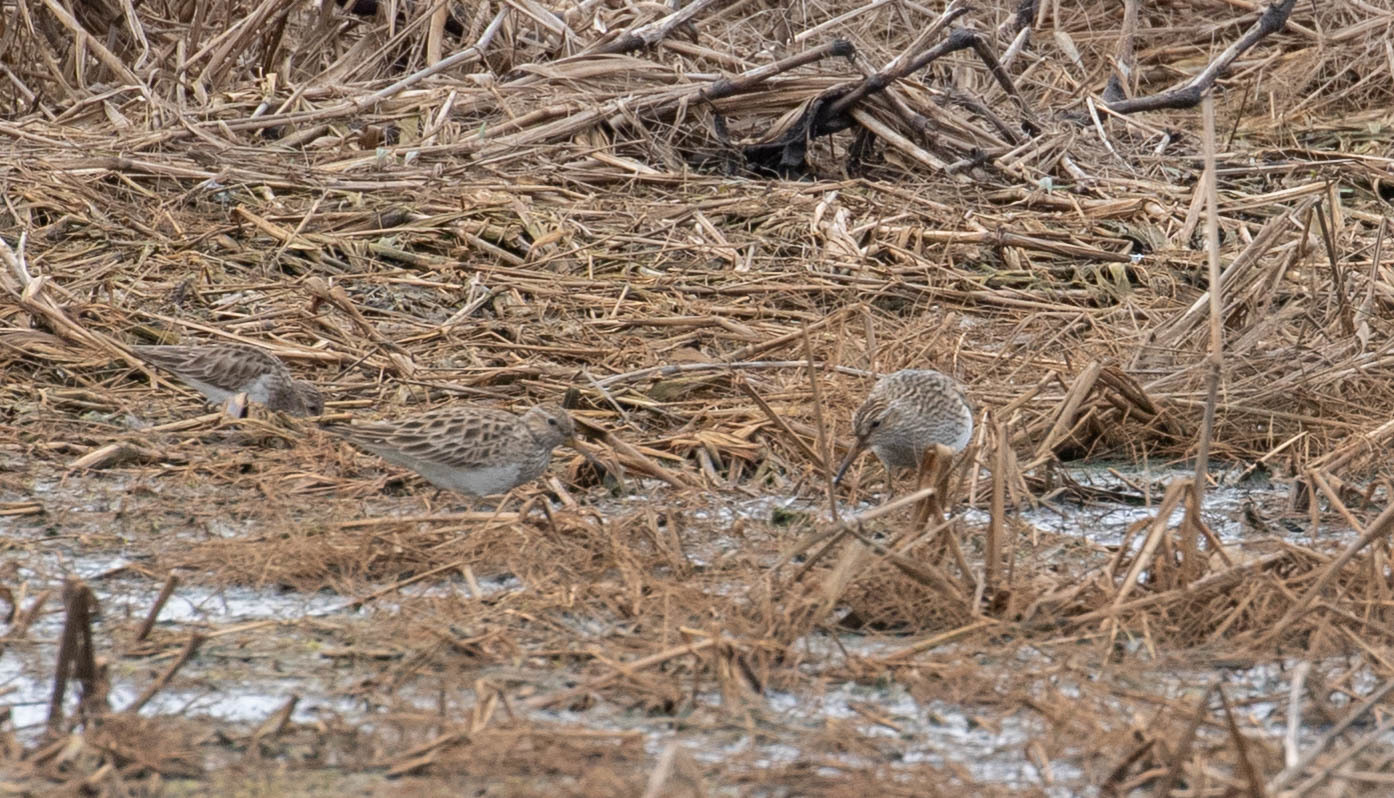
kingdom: Animalia
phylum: Chordata
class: Aves
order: Charadriiformes
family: Scolopacidae
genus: Calidris
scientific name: Calidris melanotos
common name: Pectoral sandpiper
